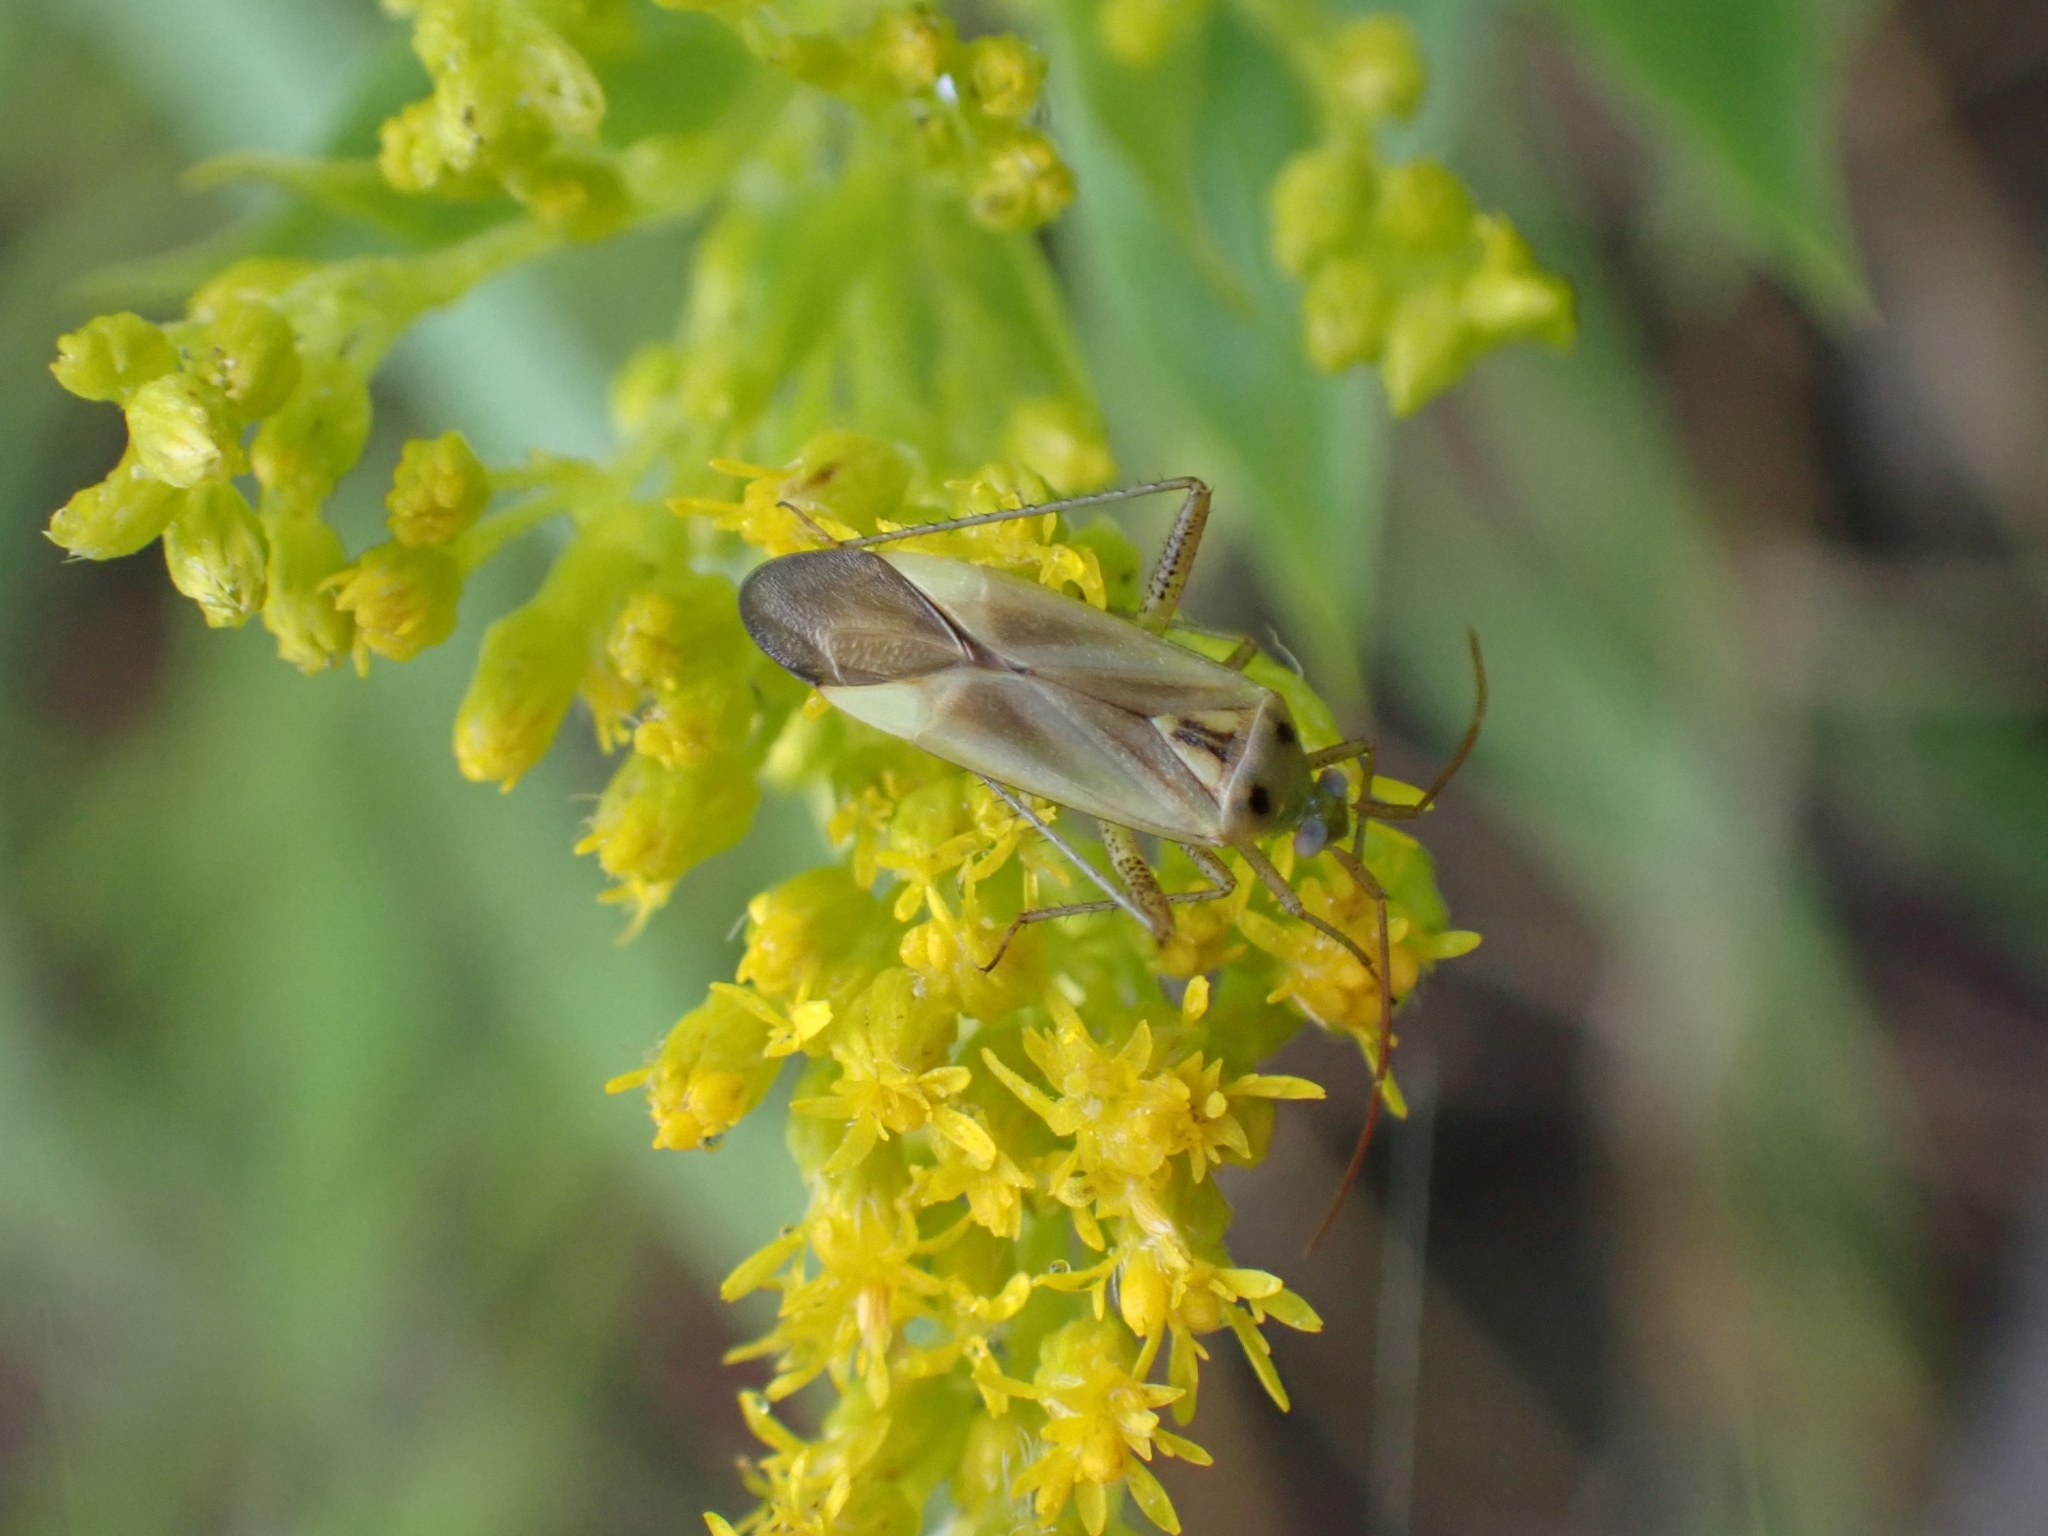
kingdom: Animalia
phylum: Arthropoda
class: Insecta
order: Hemiptera
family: Miridae
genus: Adelphocoris
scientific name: Adelphocoris lineolatus
